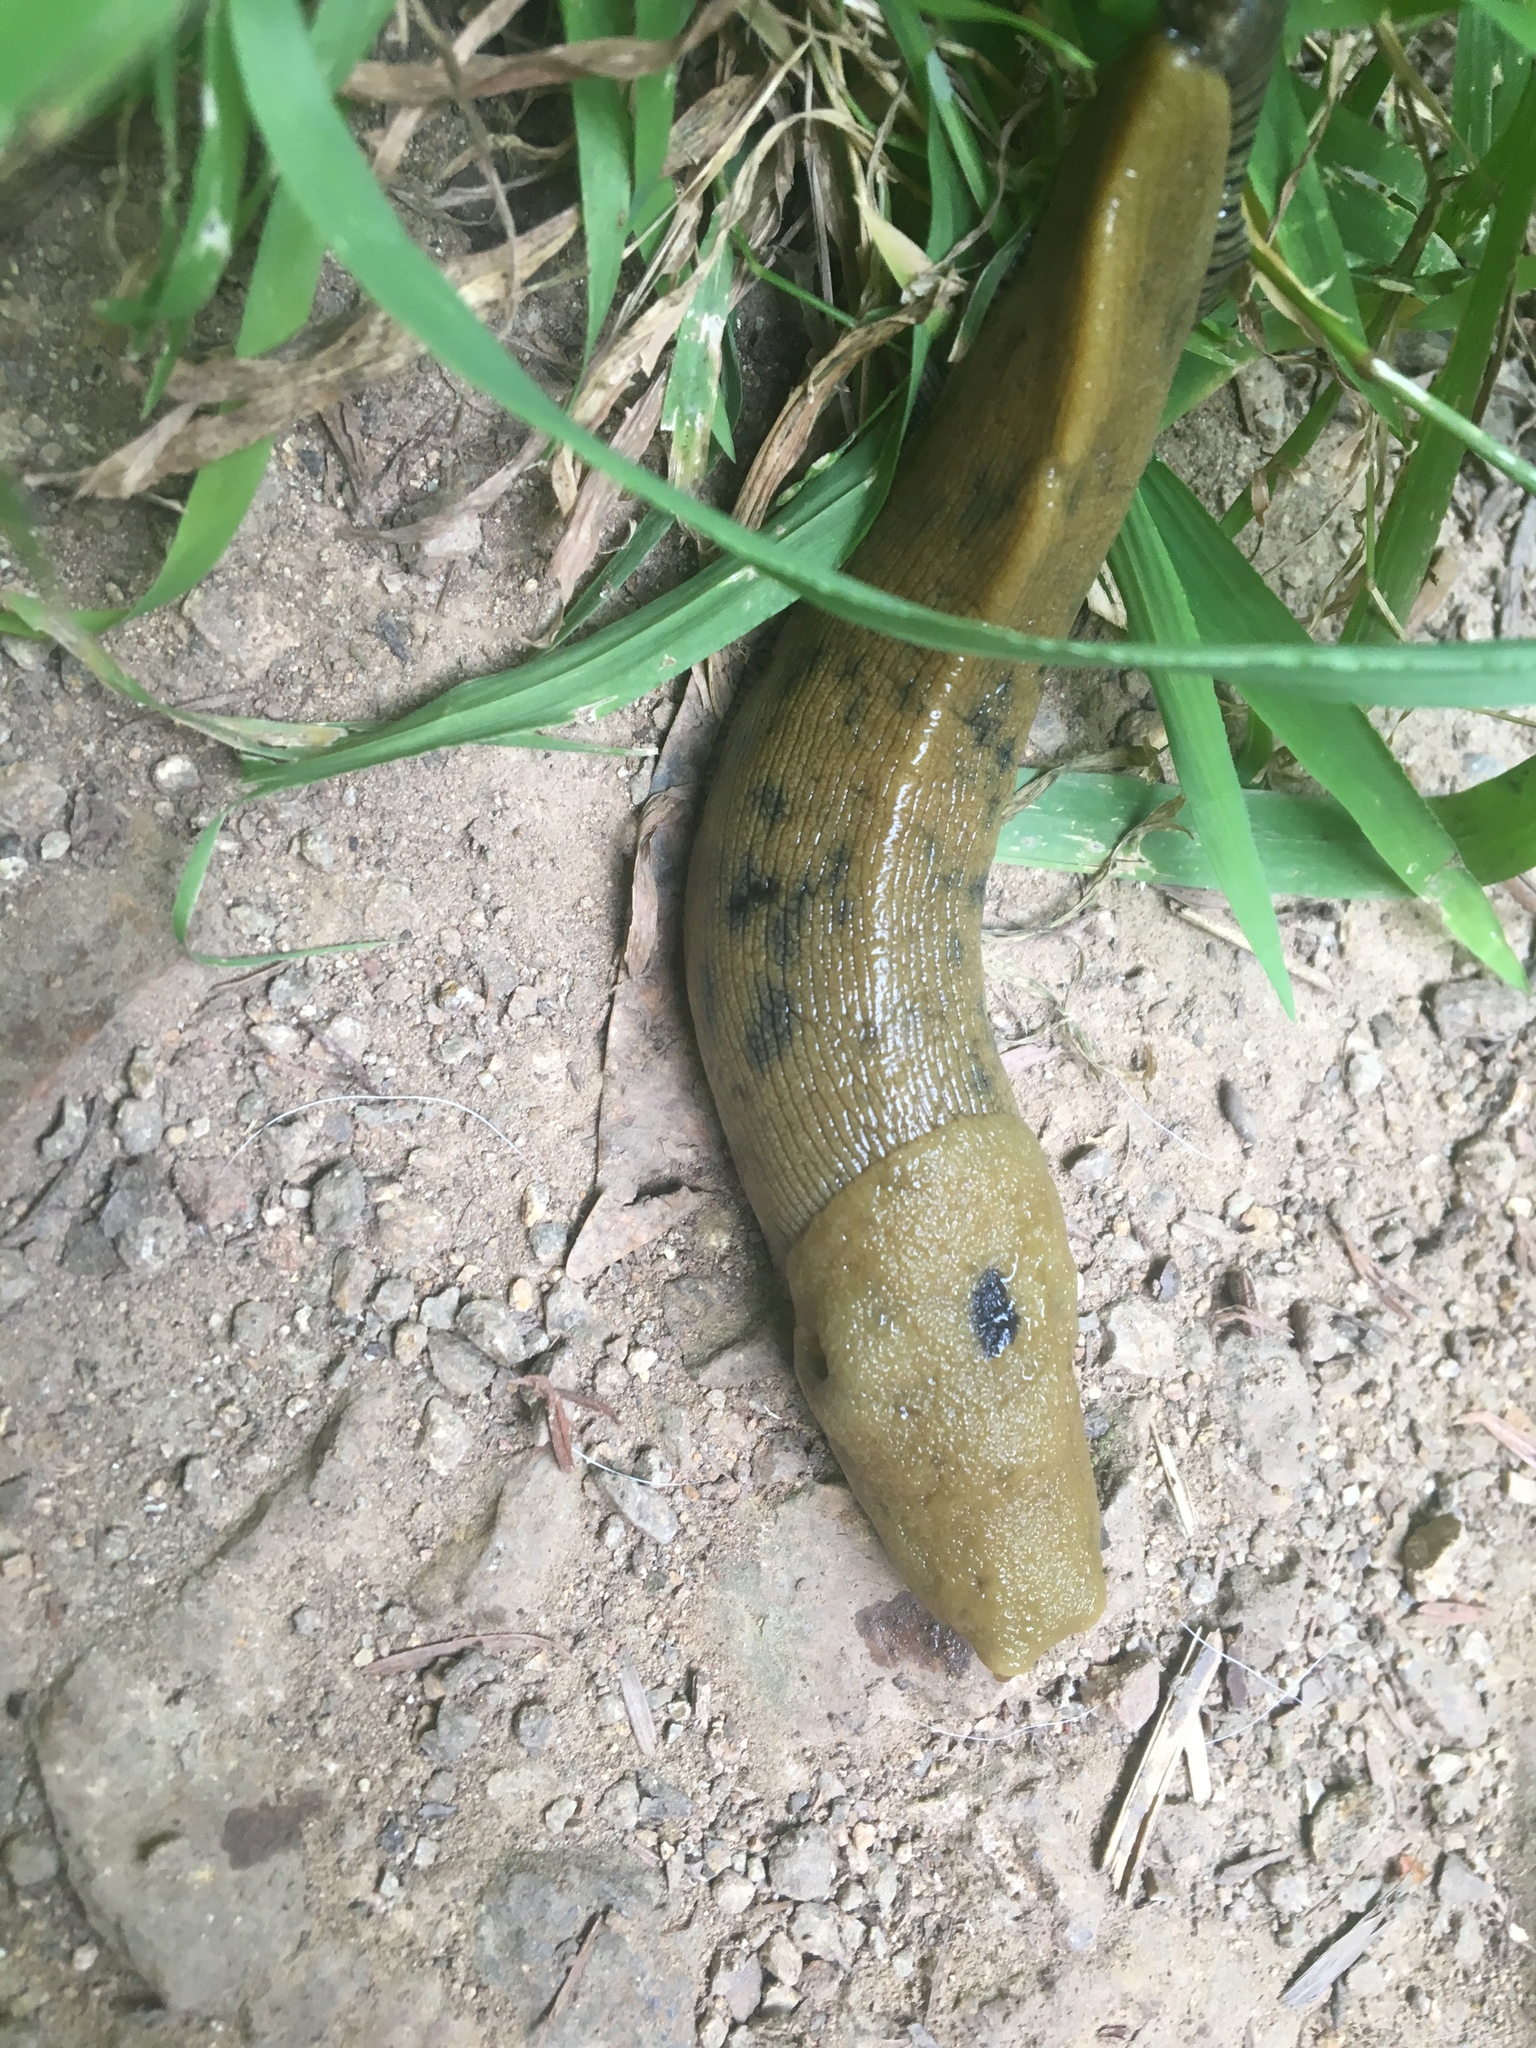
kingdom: Animalia
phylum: Mollusca
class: Gastropoda
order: Stylommatophora
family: Ariolimacidae
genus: Ariolimax
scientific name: Ariolimax buttoni
